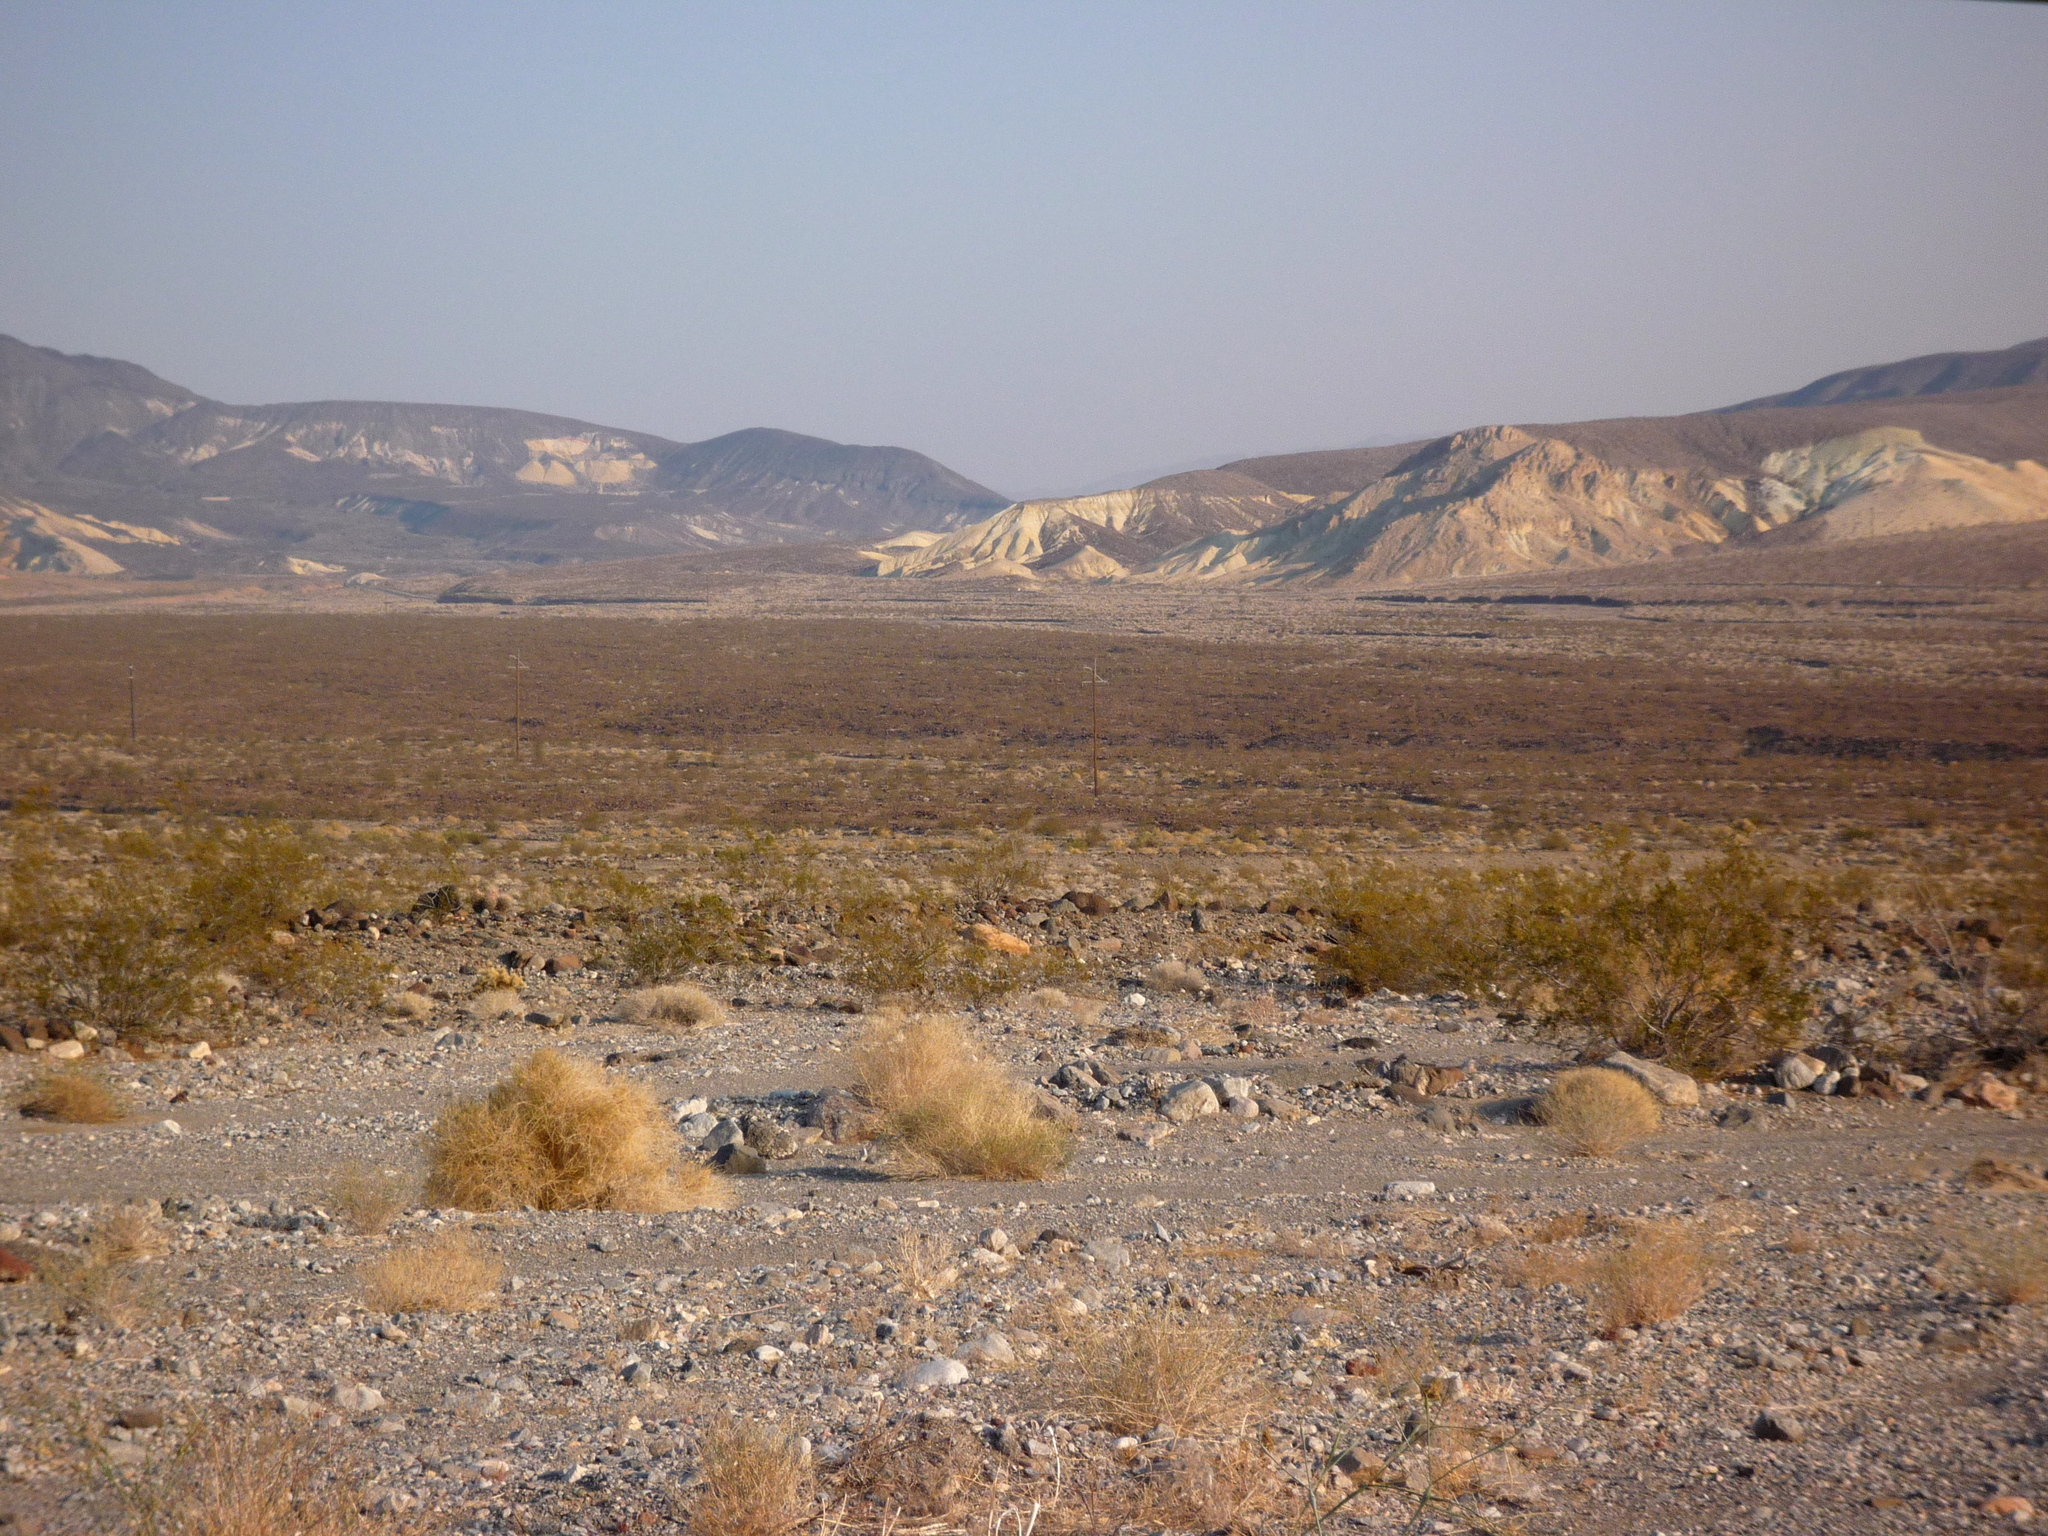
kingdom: Plantae
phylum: Tracheophyta
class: Magnoliopsida
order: Zygophyllales
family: Zygophyllaceae
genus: Larrea
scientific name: Larrea tridentata
